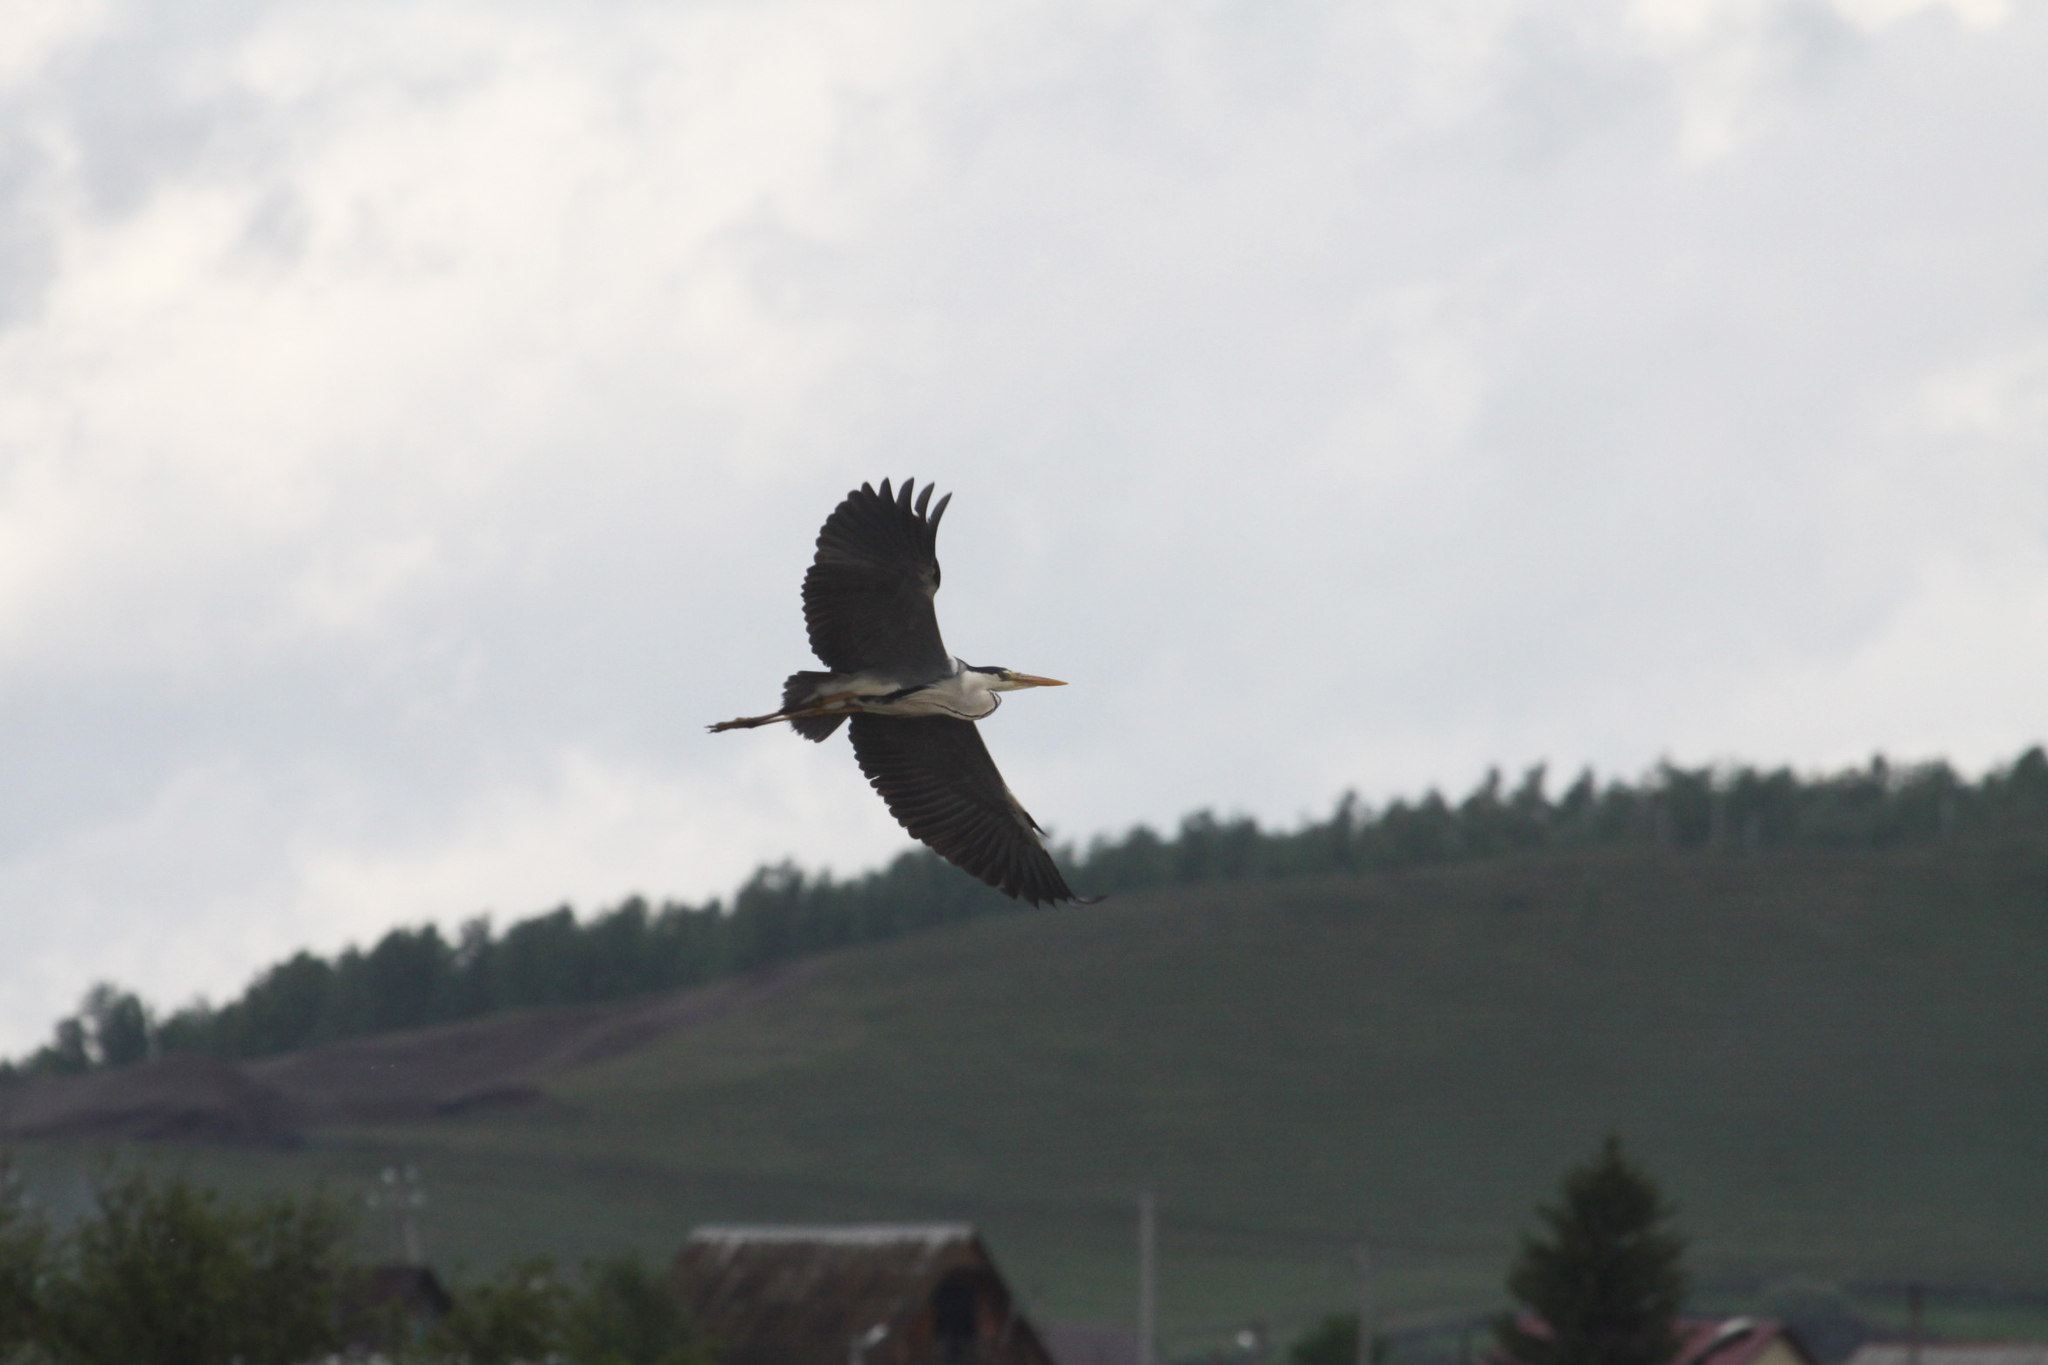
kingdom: Animalia
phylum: Chordata
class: Aves
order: Pelecaniformes
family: Ardeidae
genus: Ardea
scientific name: Ardea cinerea
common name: Grey heron
